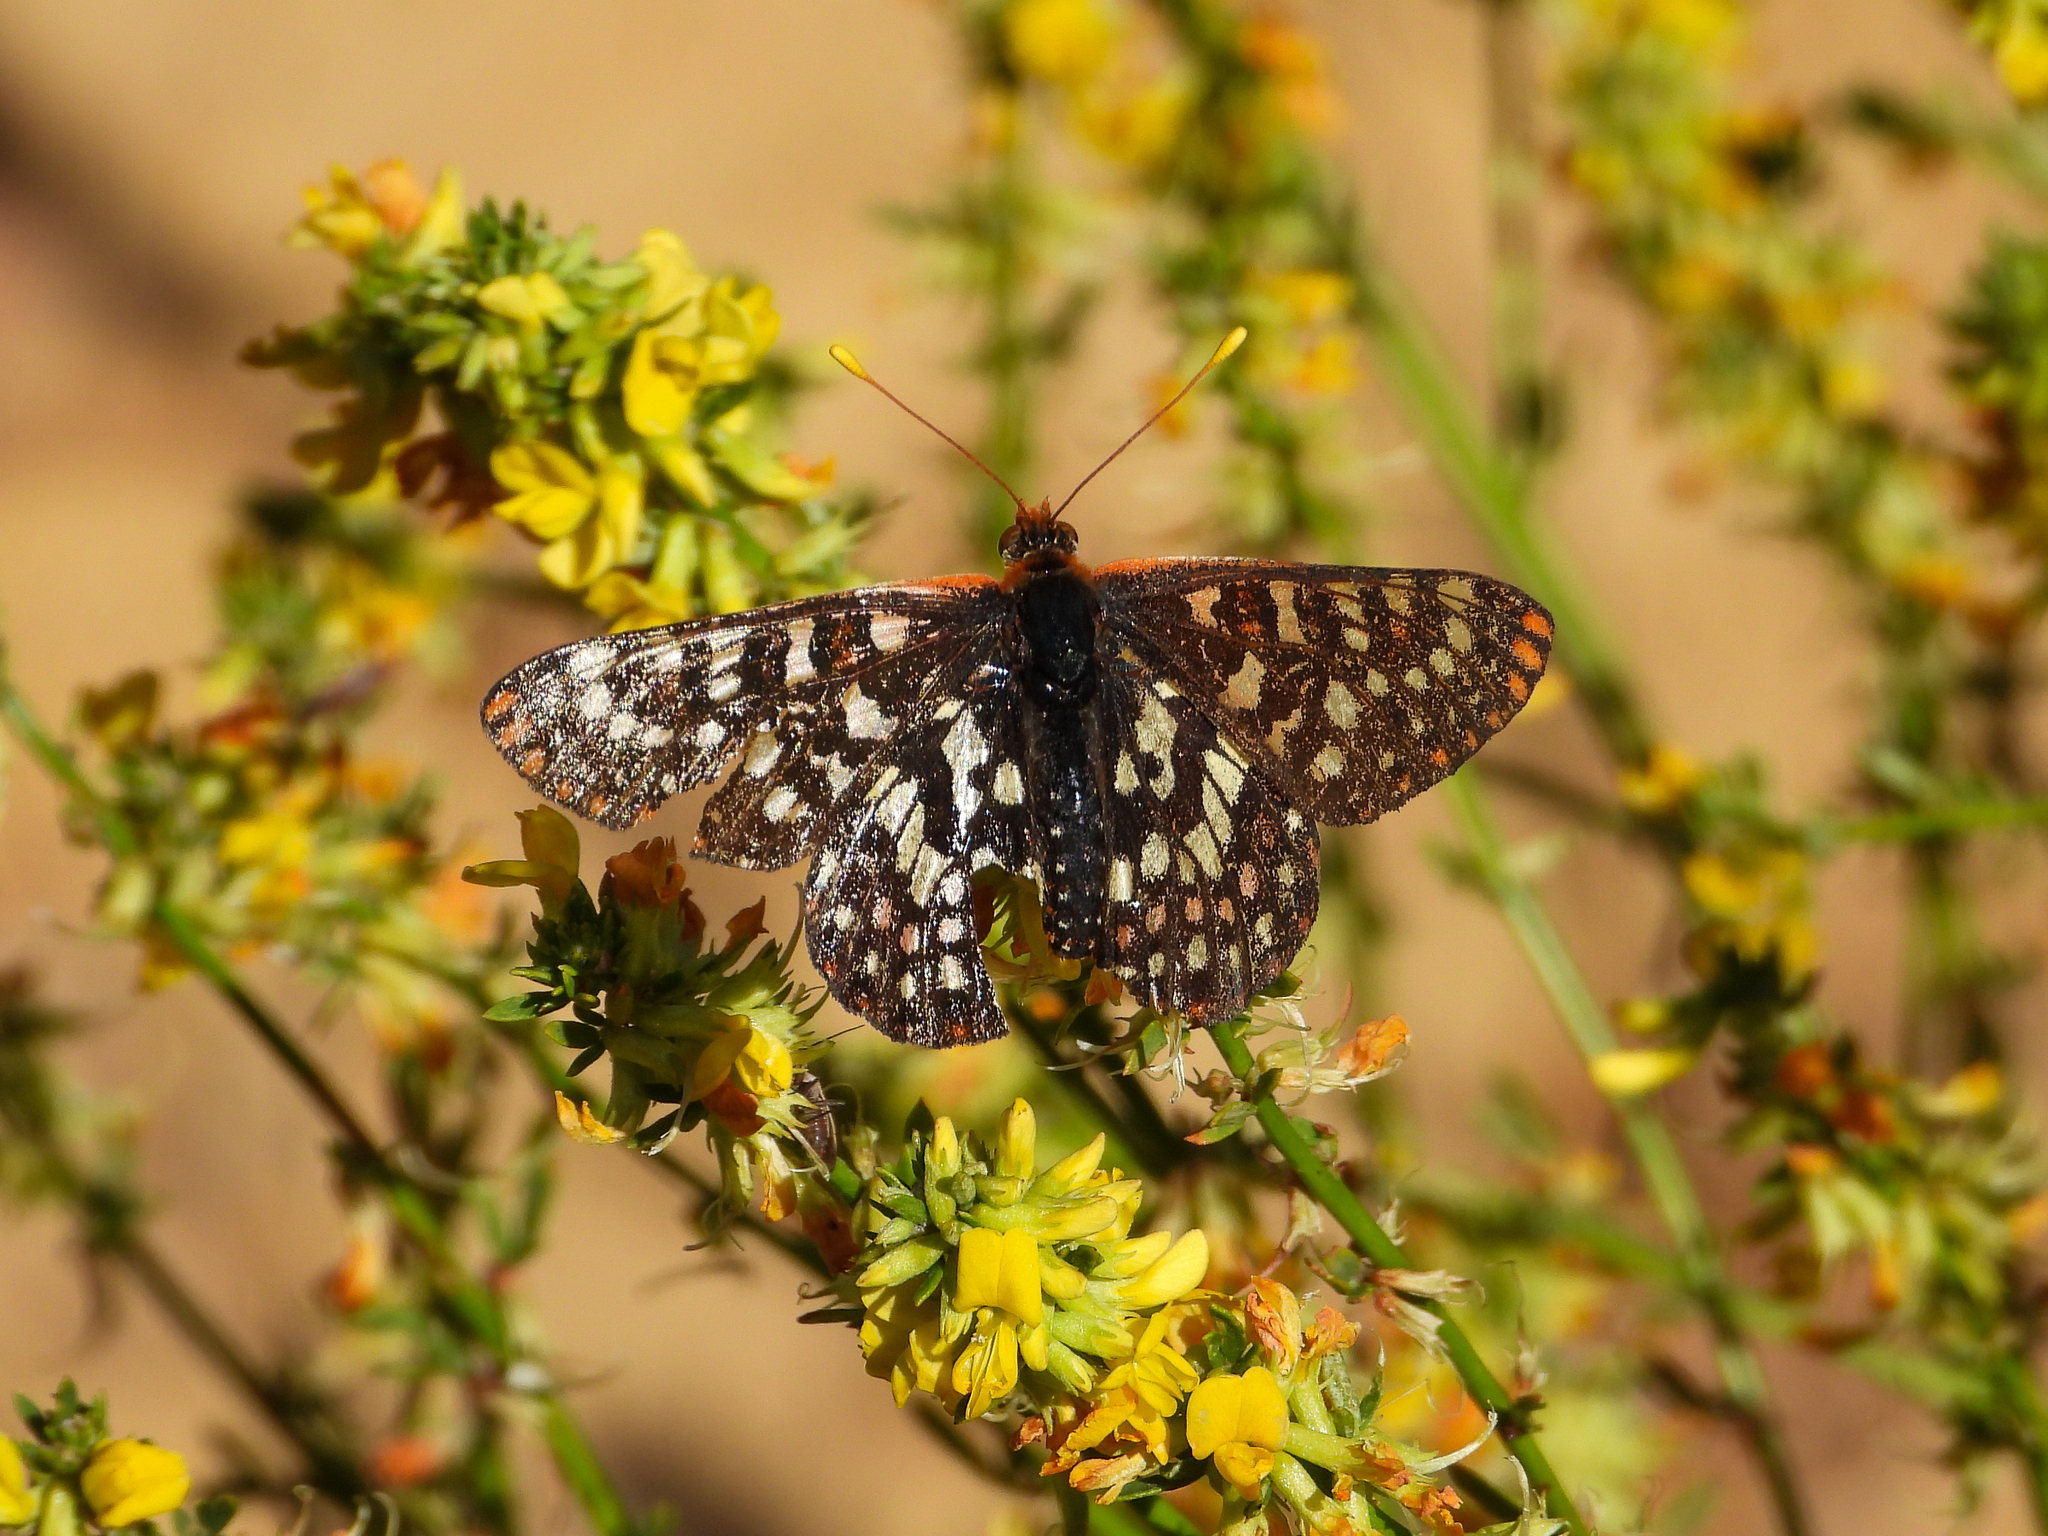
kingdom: Animalia
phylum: Arthropoda
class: Insecta
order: Lepidoptera
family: Nymphalidae
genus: Occidryas
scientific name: Occidryas chalcedona
